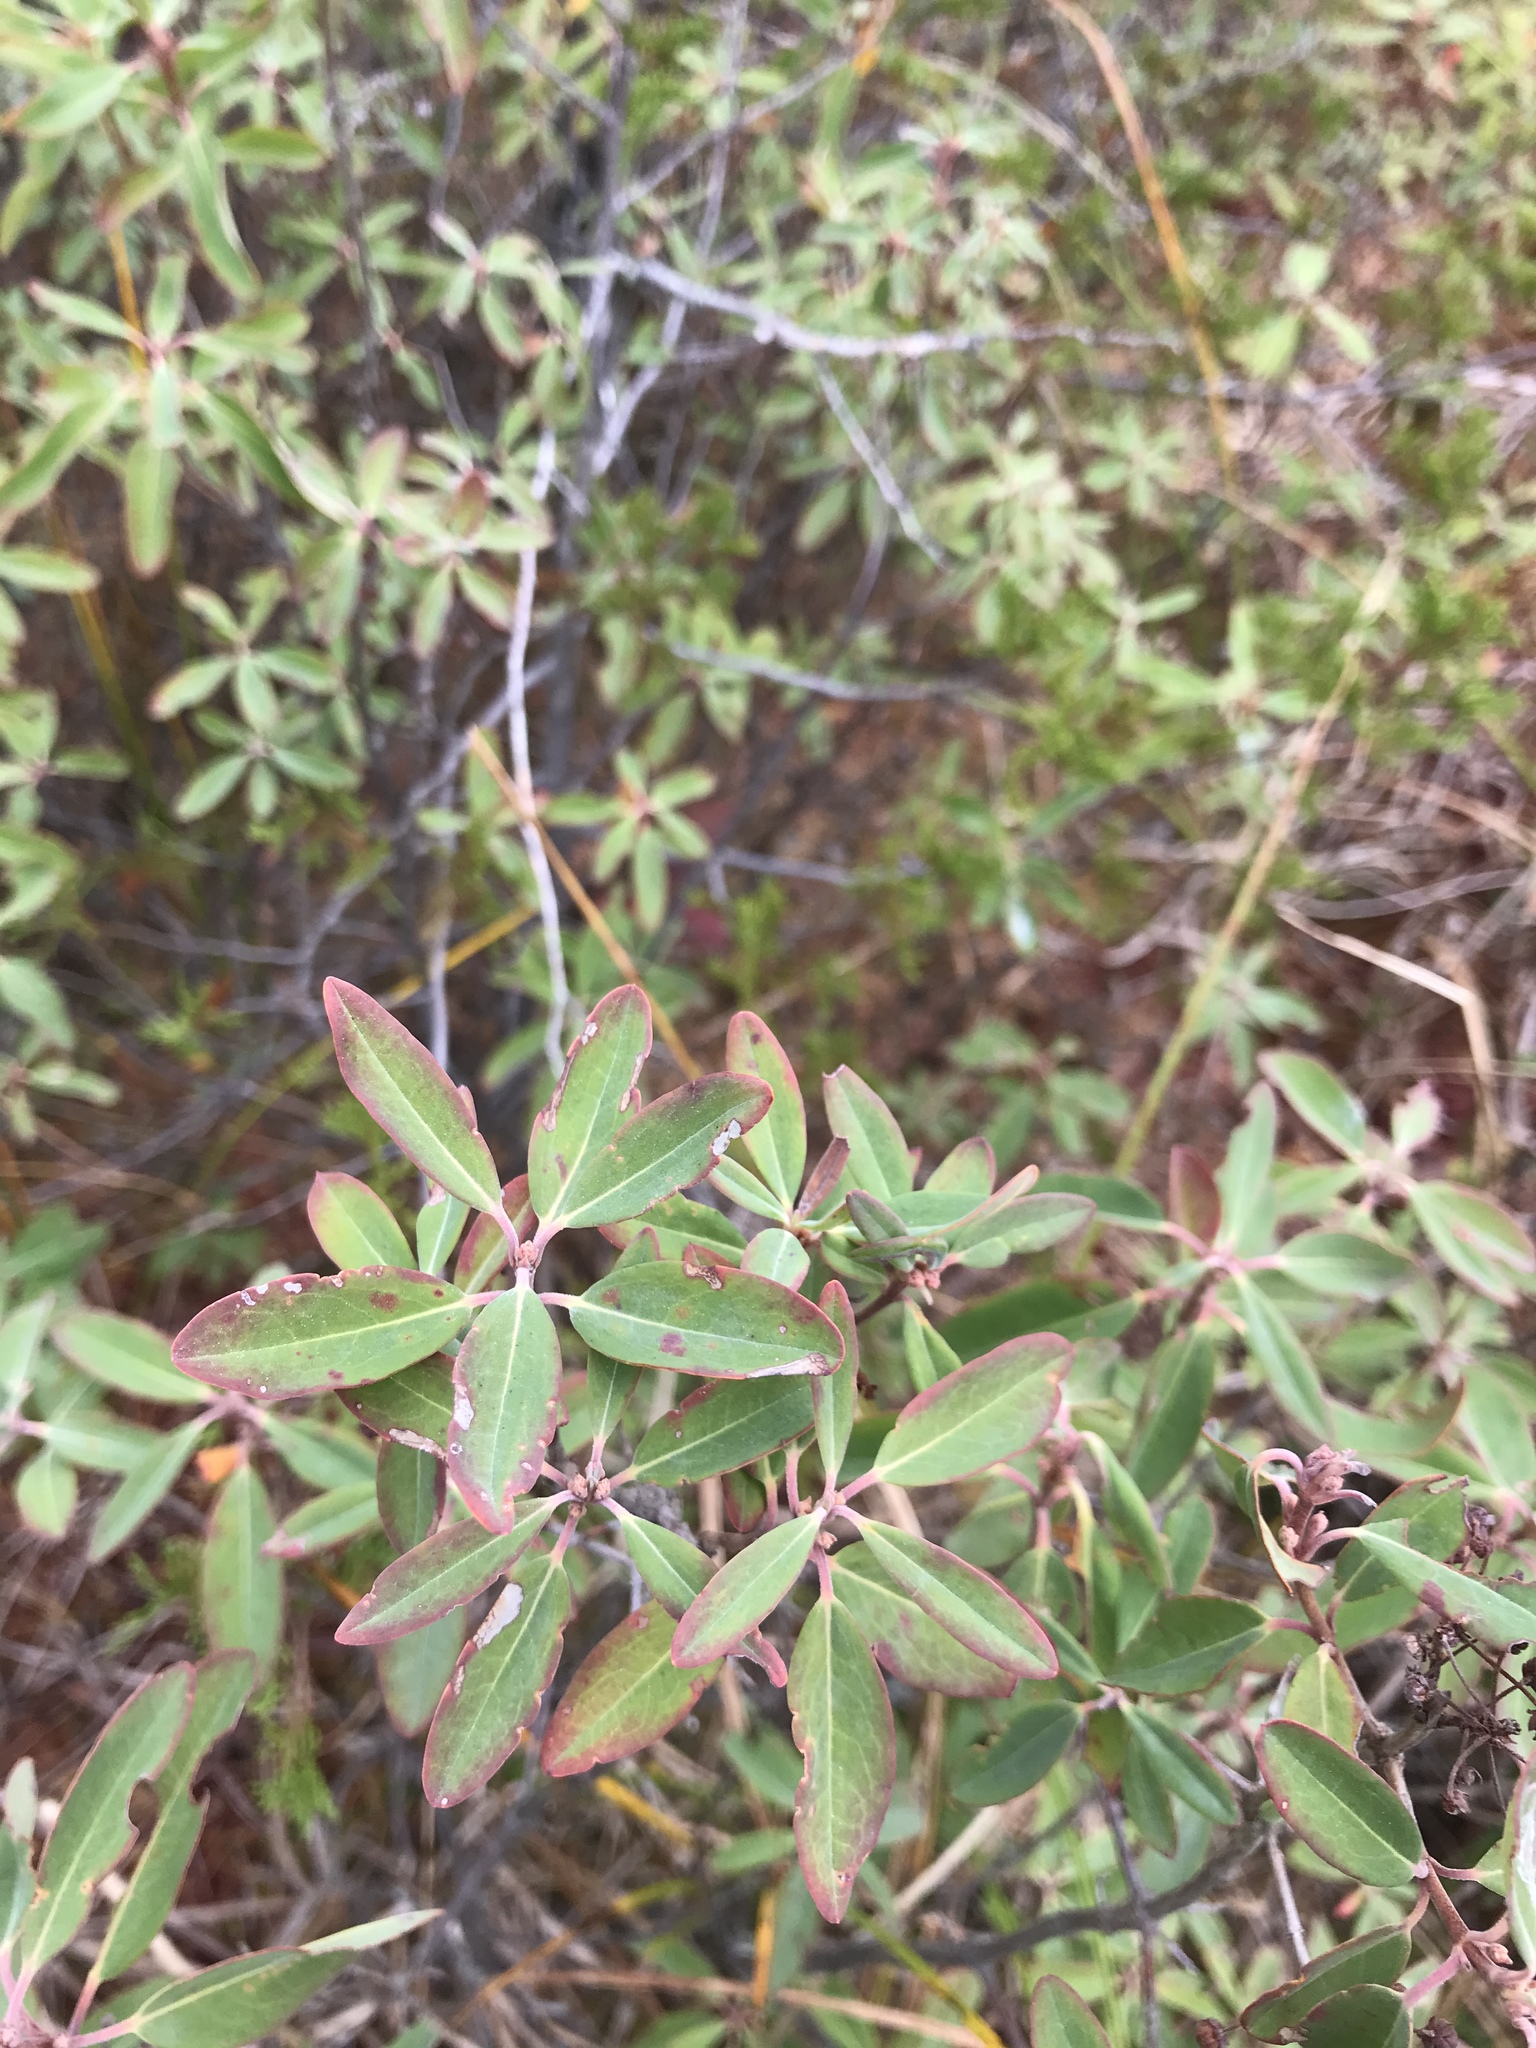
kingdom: Plantae
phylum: Tracheophyta
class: Magnoliopsida
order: Ericales
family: Ericaceae
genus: Kalmia
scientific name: Kalmia angustifolia
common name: Sheep-laurel
